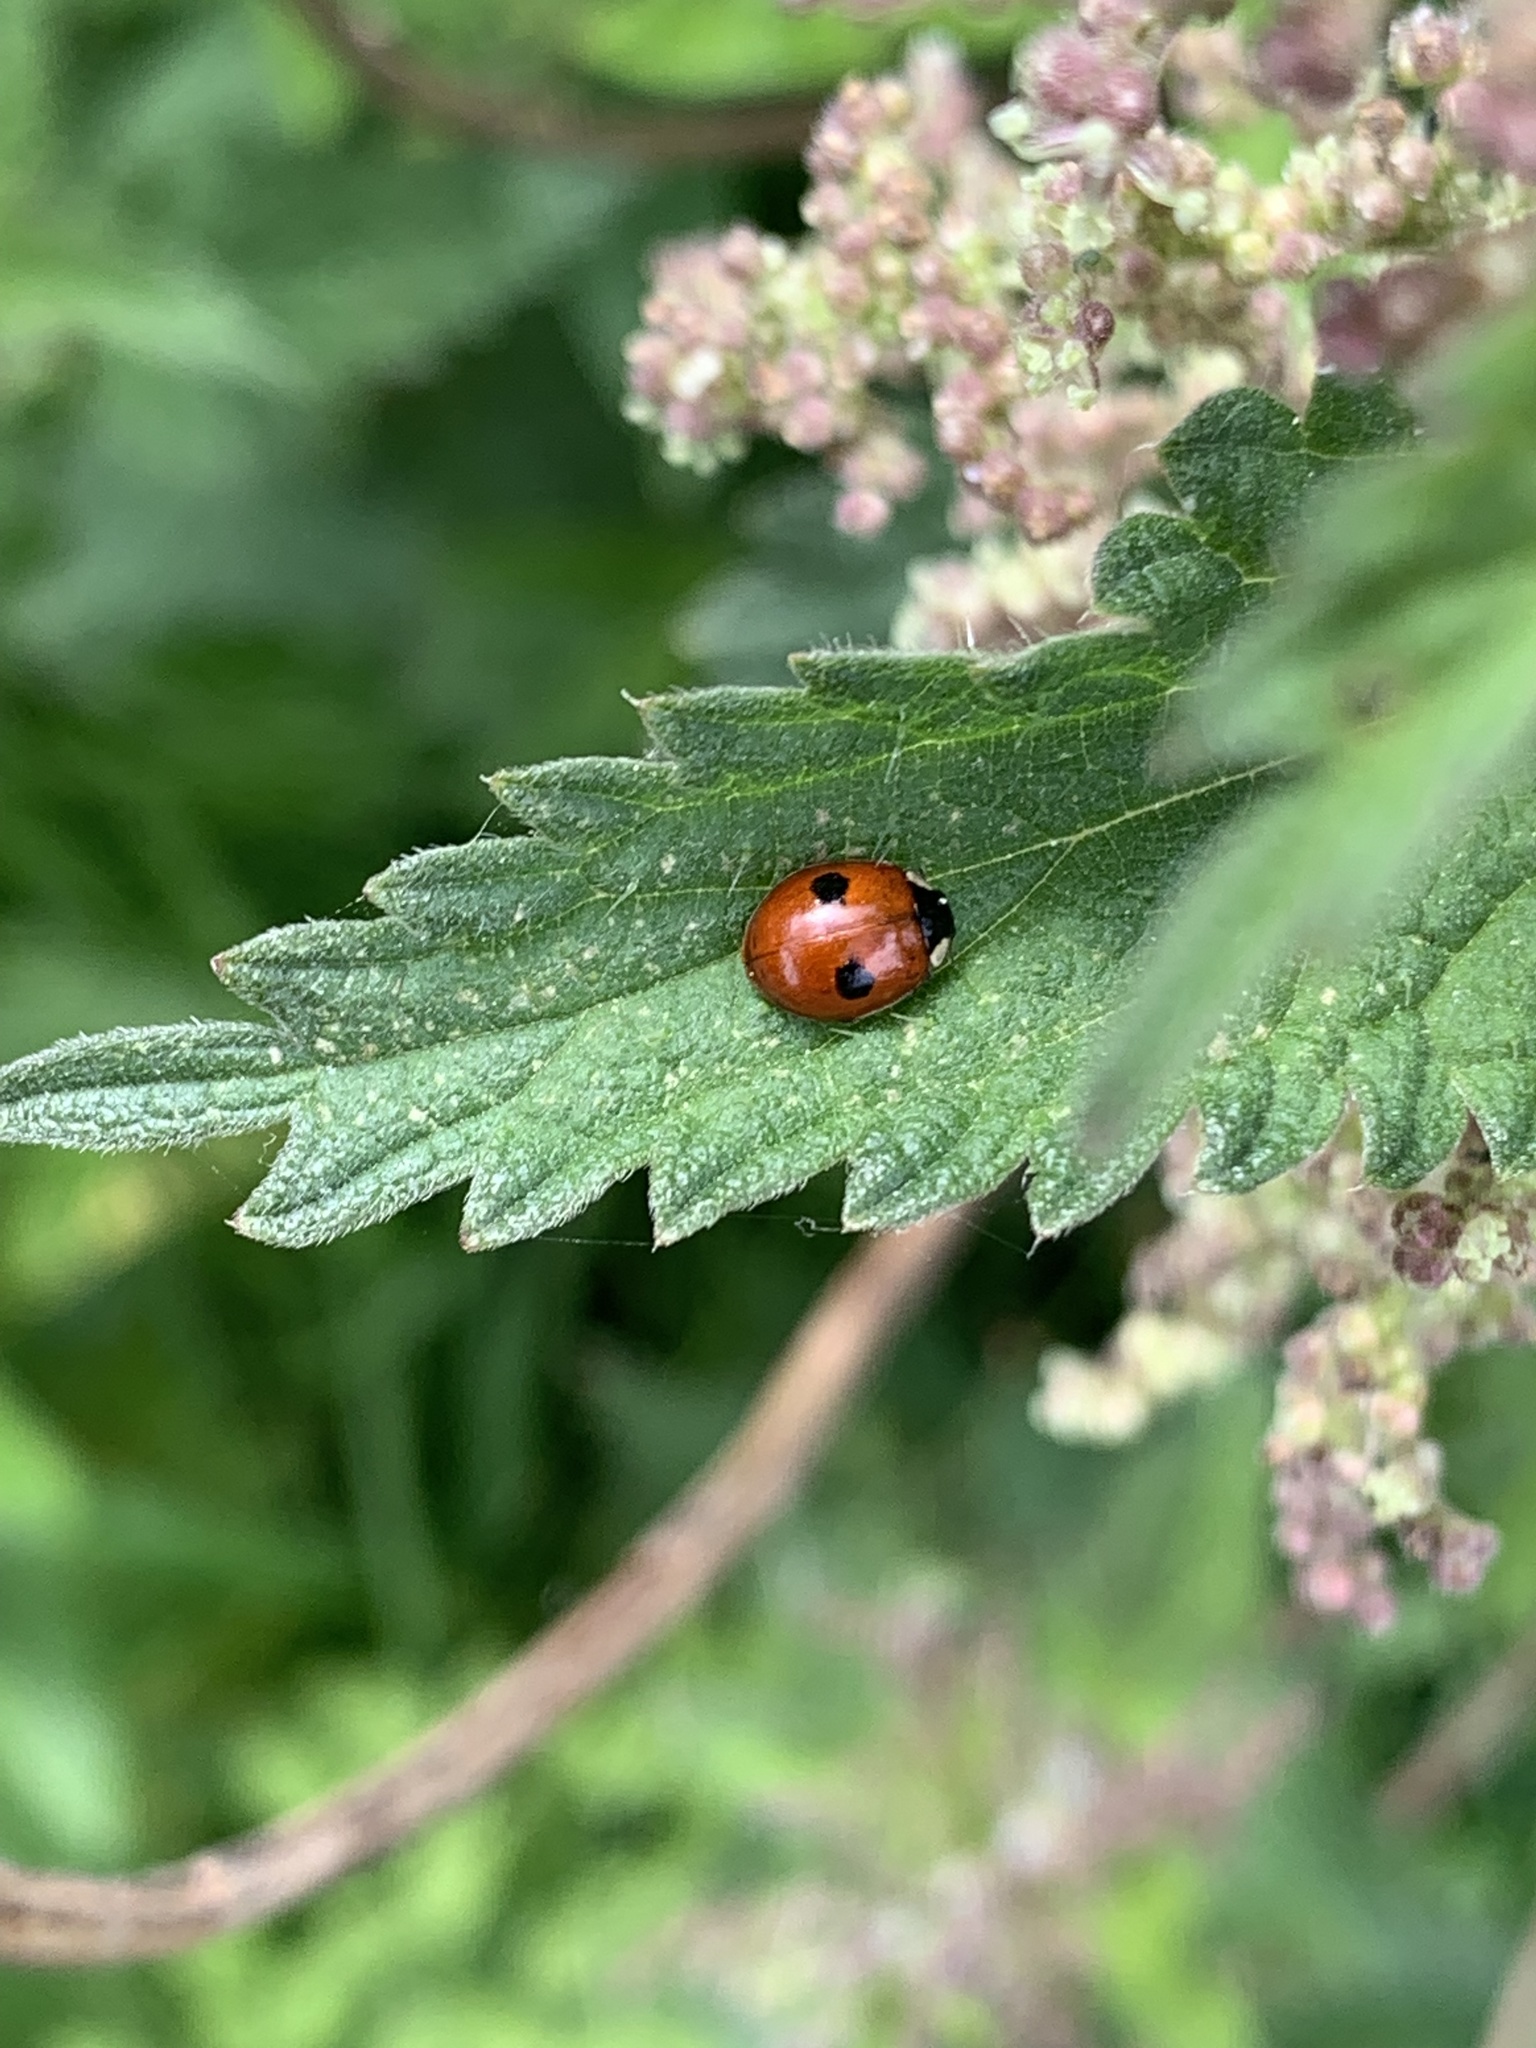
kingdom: Animalia
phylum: Arthropoda
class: Insecta
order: Coleoptera
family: Coccinellidae
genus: Adalia
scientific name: Adalia bipunctata
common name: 2-spot ladybird
